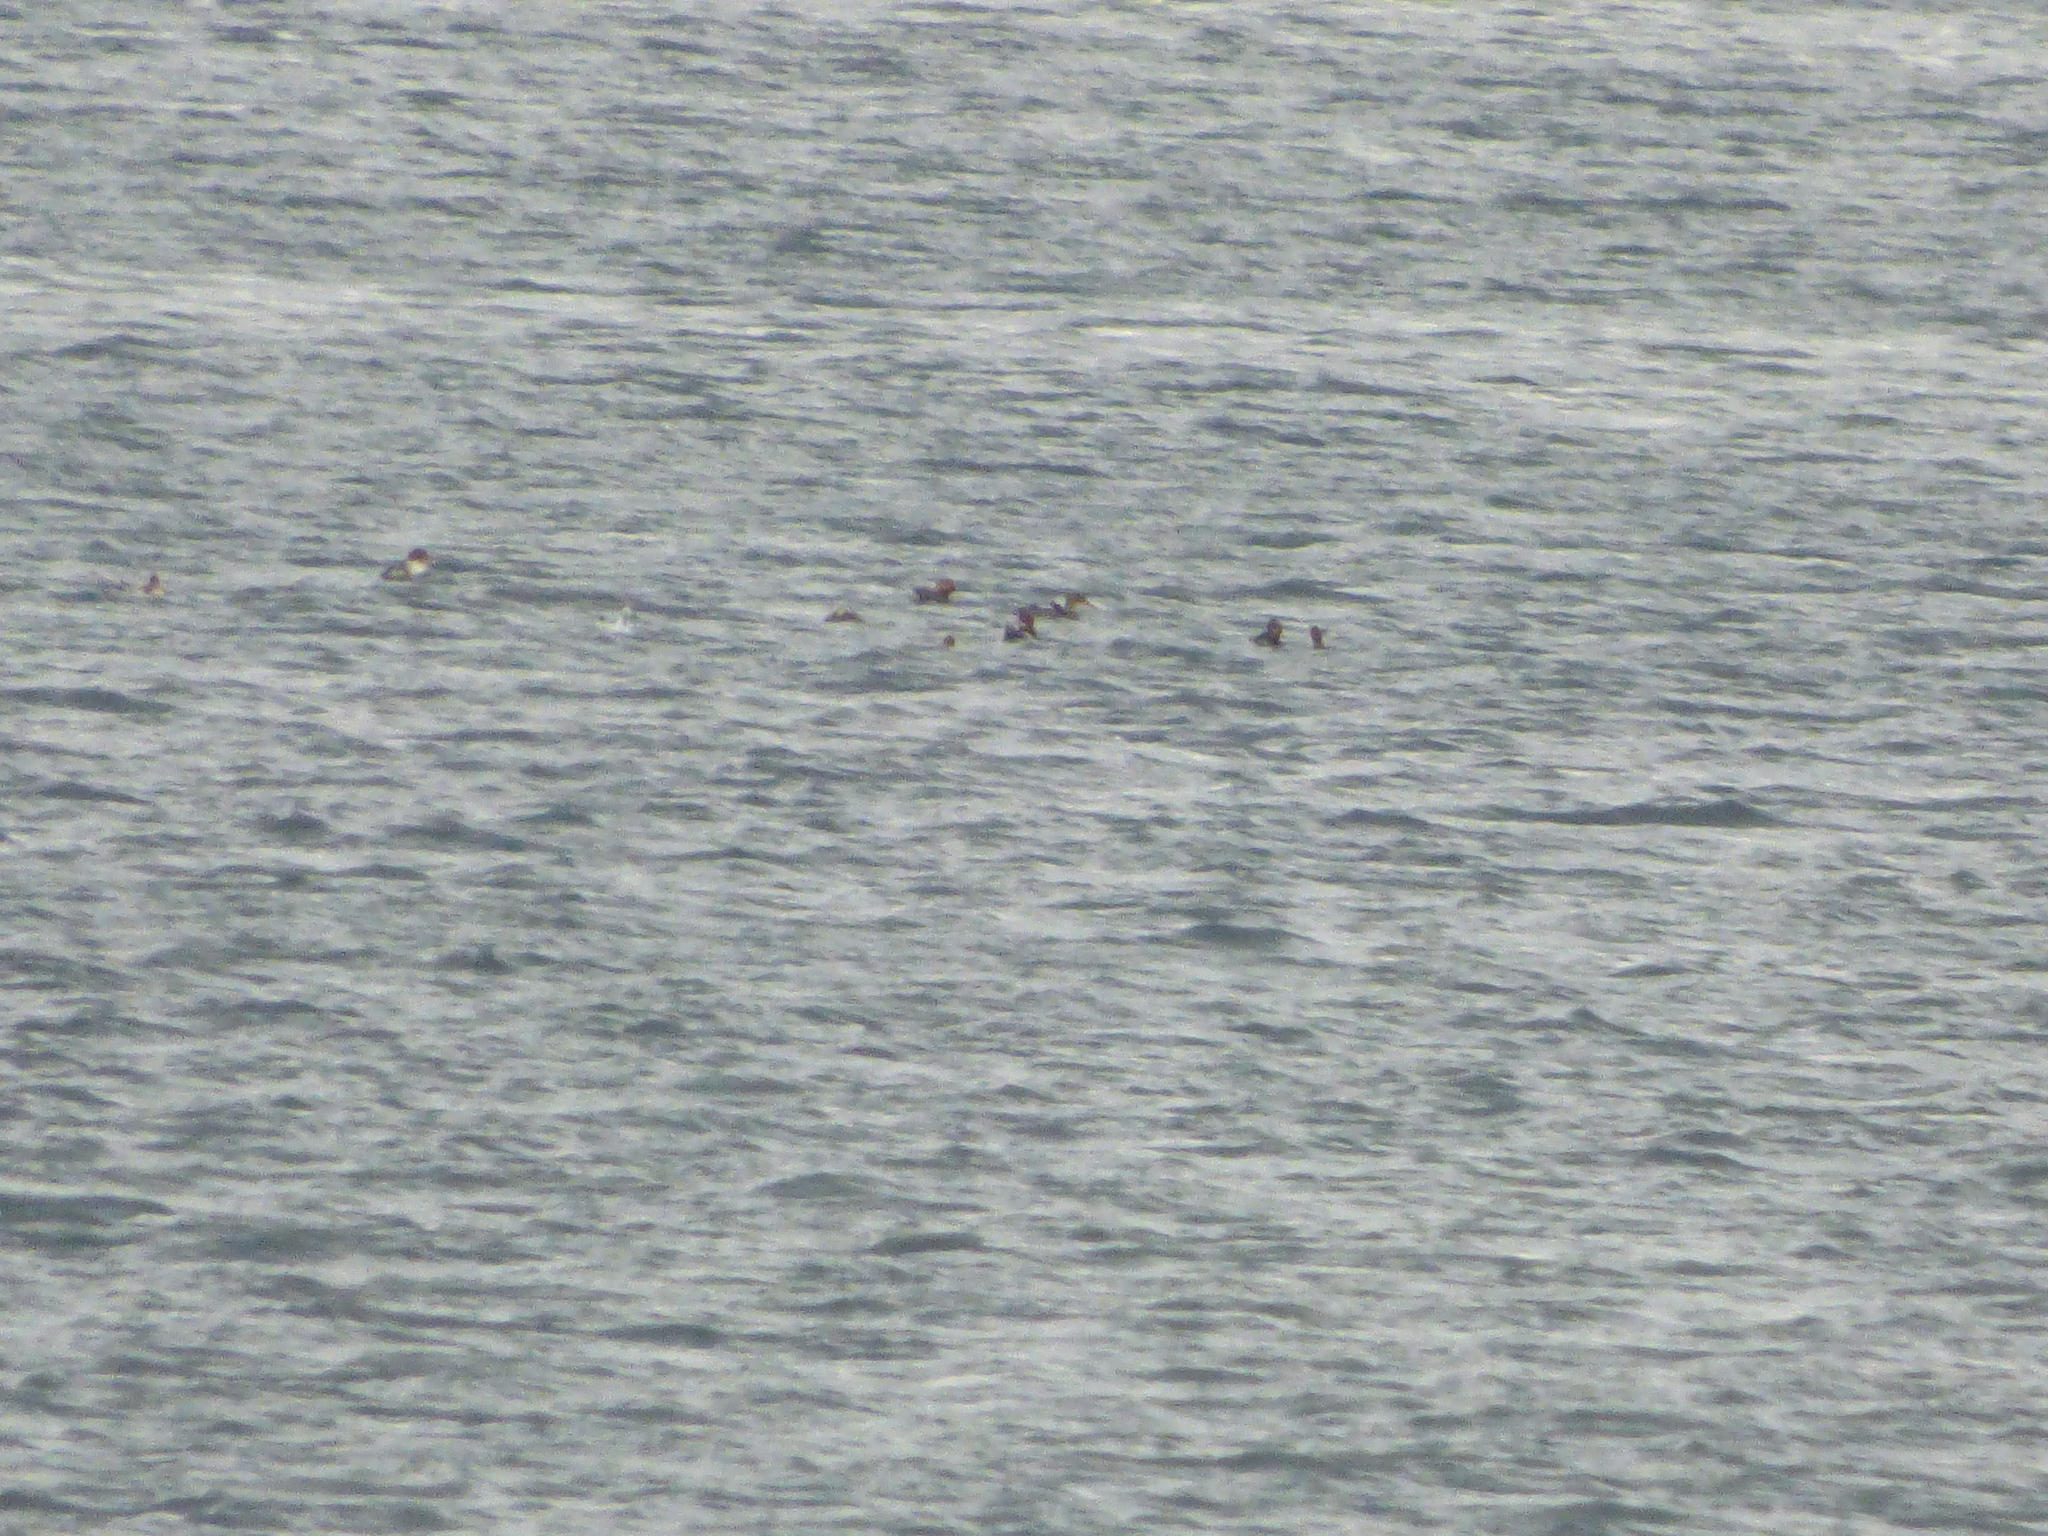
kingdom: Animalia
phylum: Chordata
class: Aves
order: Anseriformes
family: Anatidae
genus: Mergus
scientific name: Mergus merganser
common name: Common merganser
